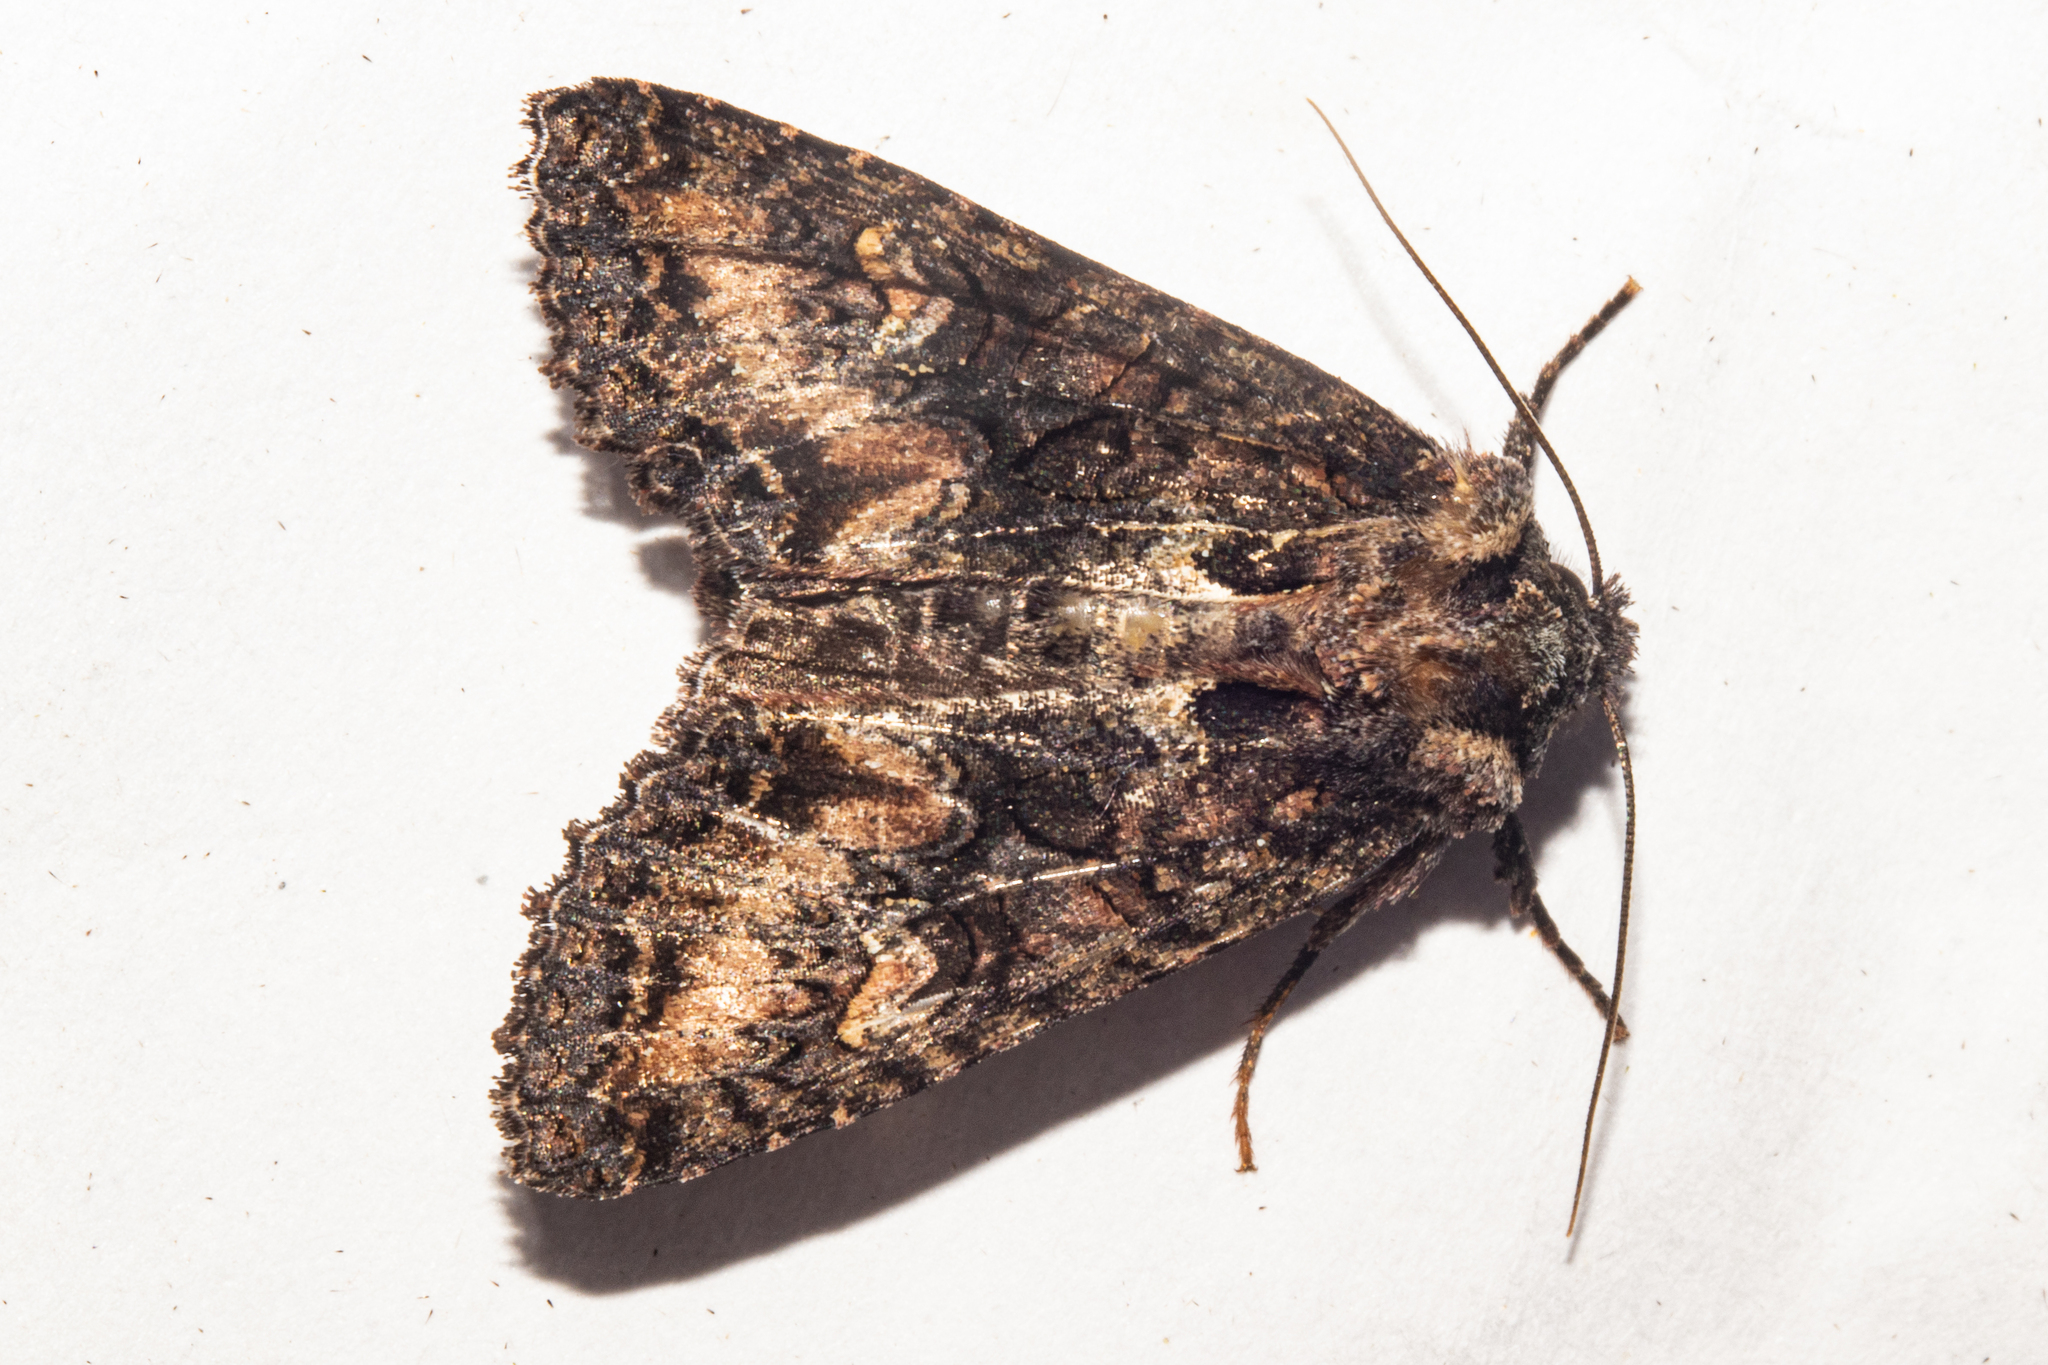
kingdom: Animalia
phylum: Arthropoda
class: Insecta
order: Lepidoptera
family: Noctuidae
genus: Meterana
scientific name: Meterana dotata
